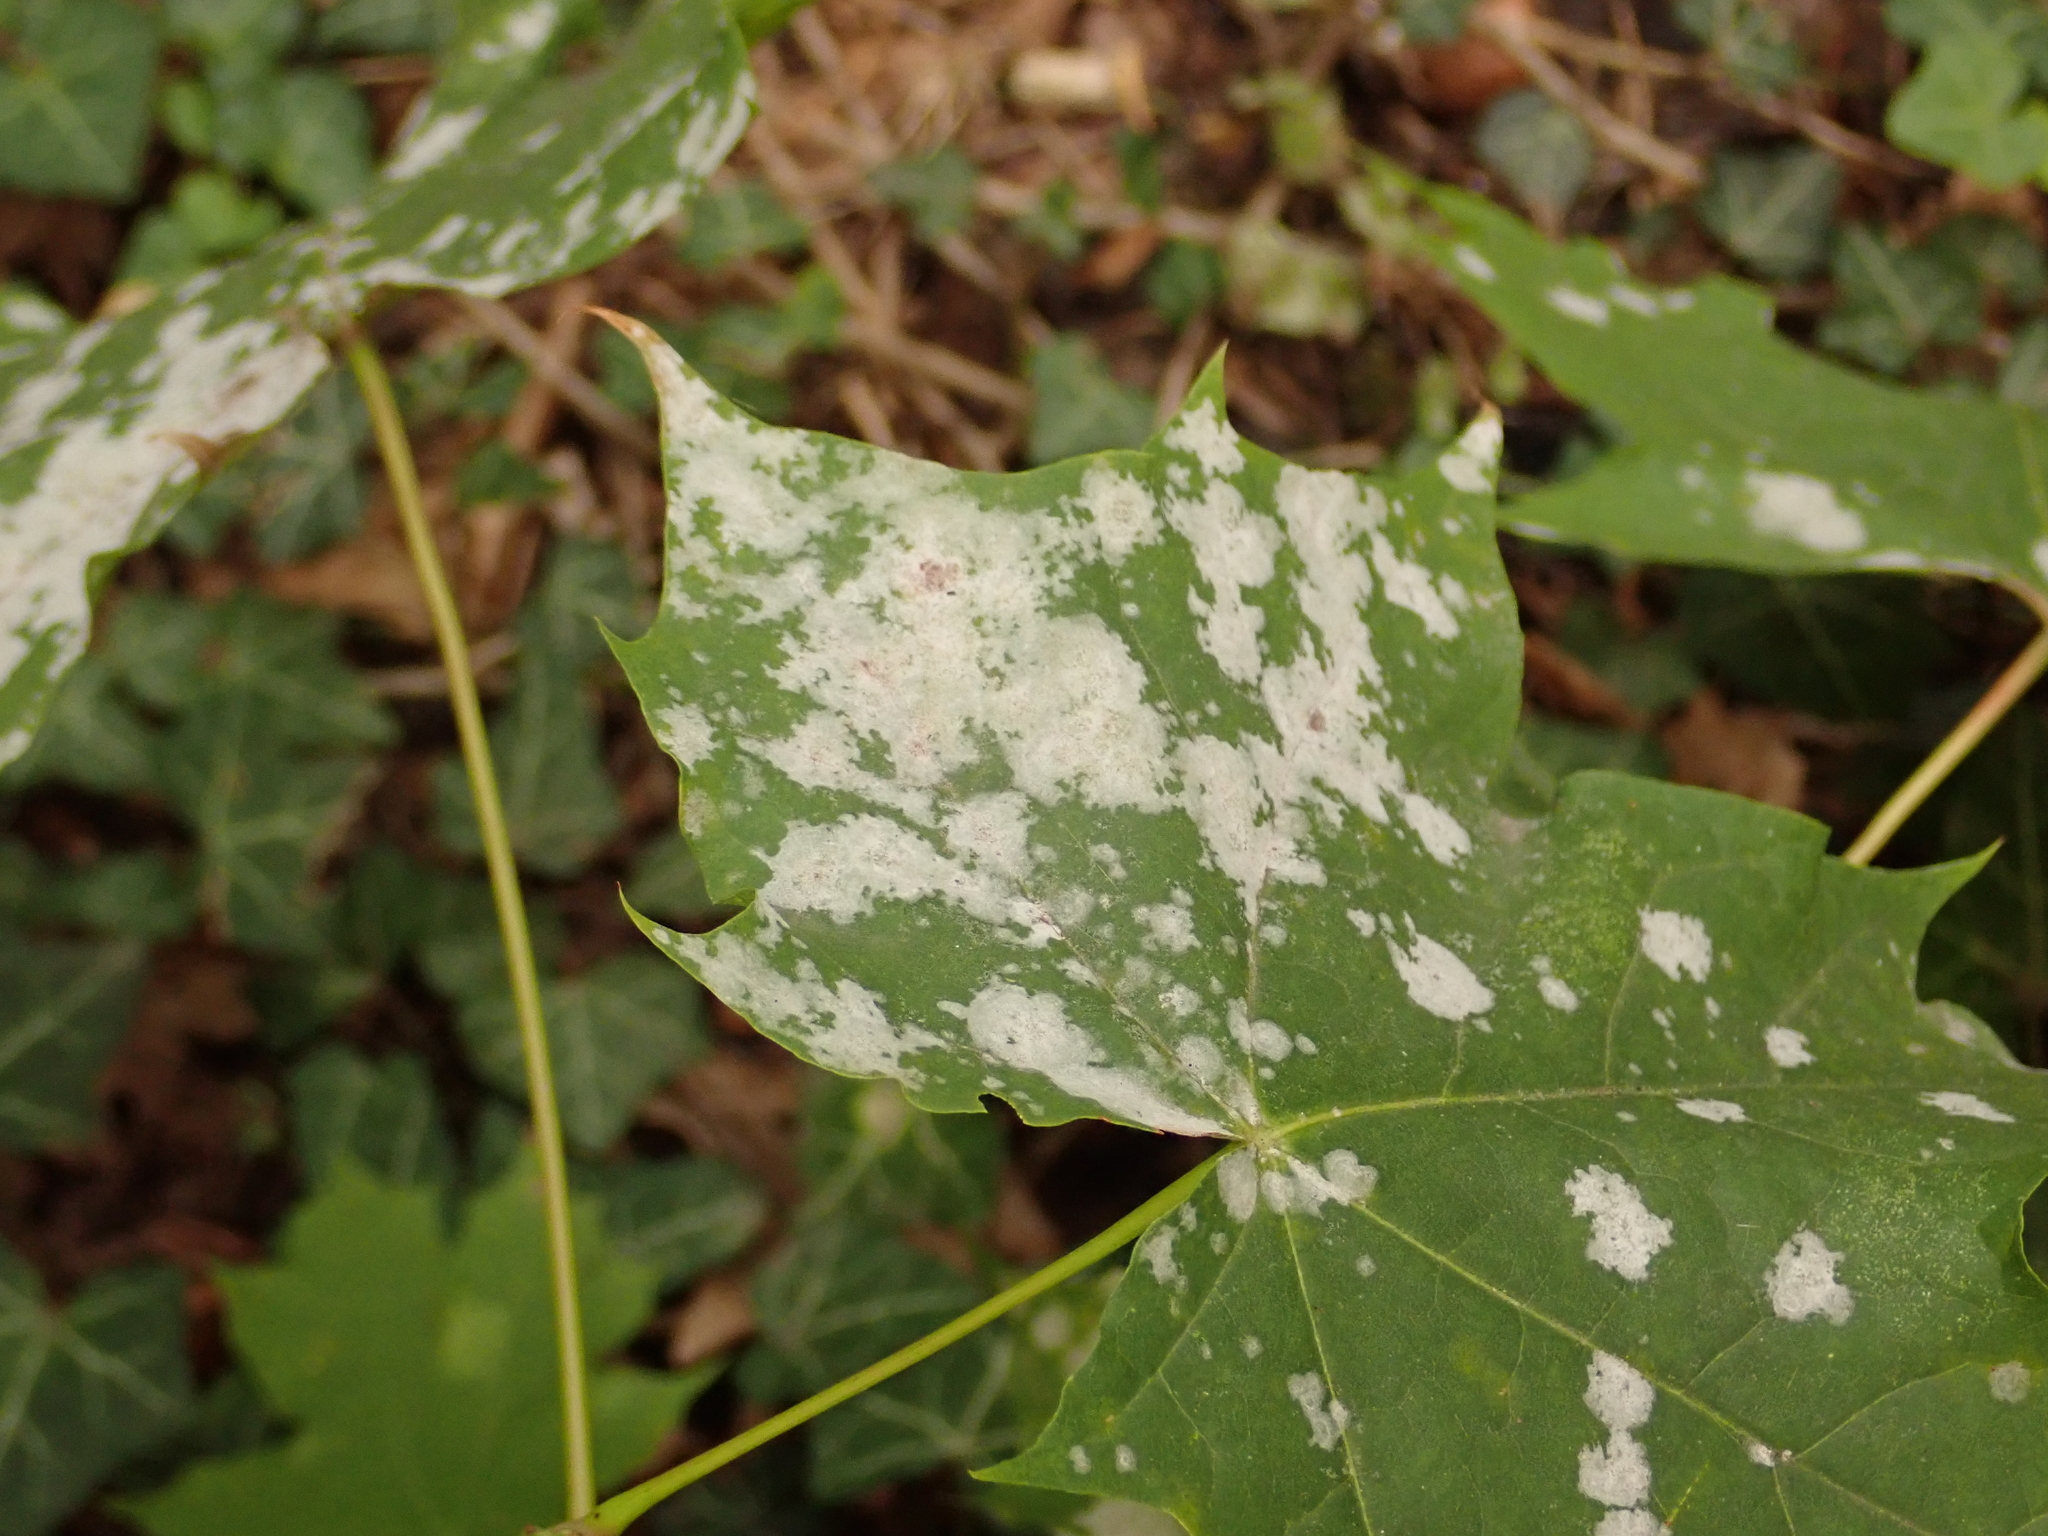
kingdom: Fungi
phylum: Ascomycota
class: Leotiomycetes
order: Helotiales
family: Erysiphaceae
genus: Sawadaea
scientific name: Sawadaea tulasnei
